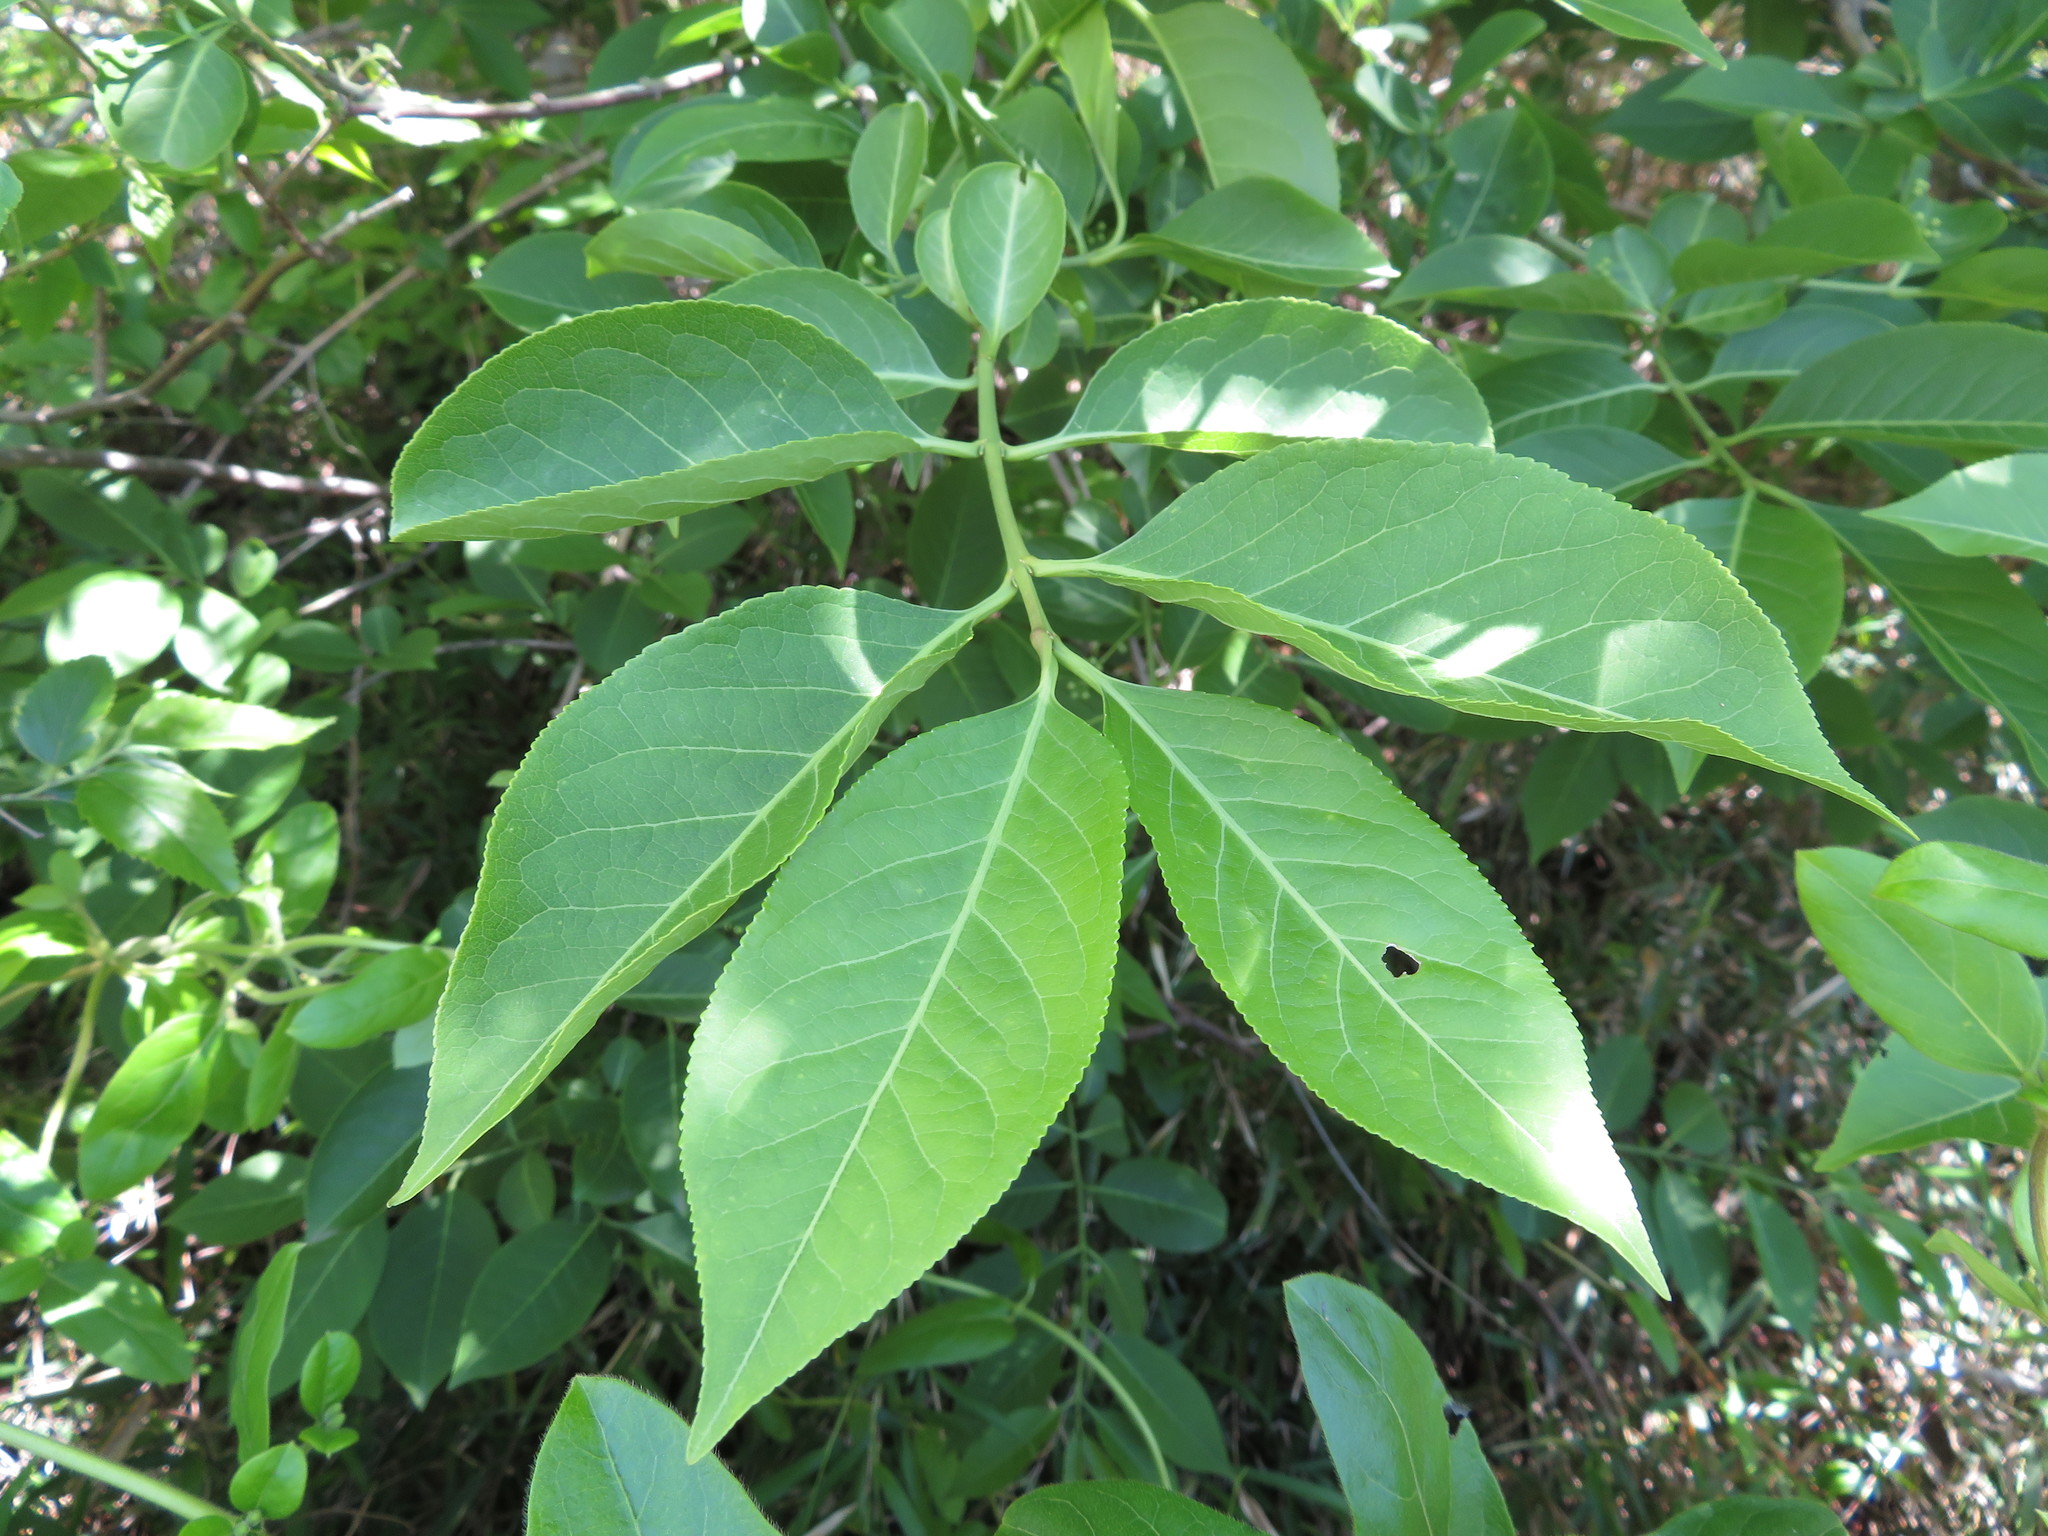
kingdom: Plantae
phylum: Tracheophyta
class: Magnoliopsida
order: Celastrales
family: Celastraceae
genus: Euonymus
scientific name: Euonymus hamiltonianus
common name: Hamilton's spindletree
